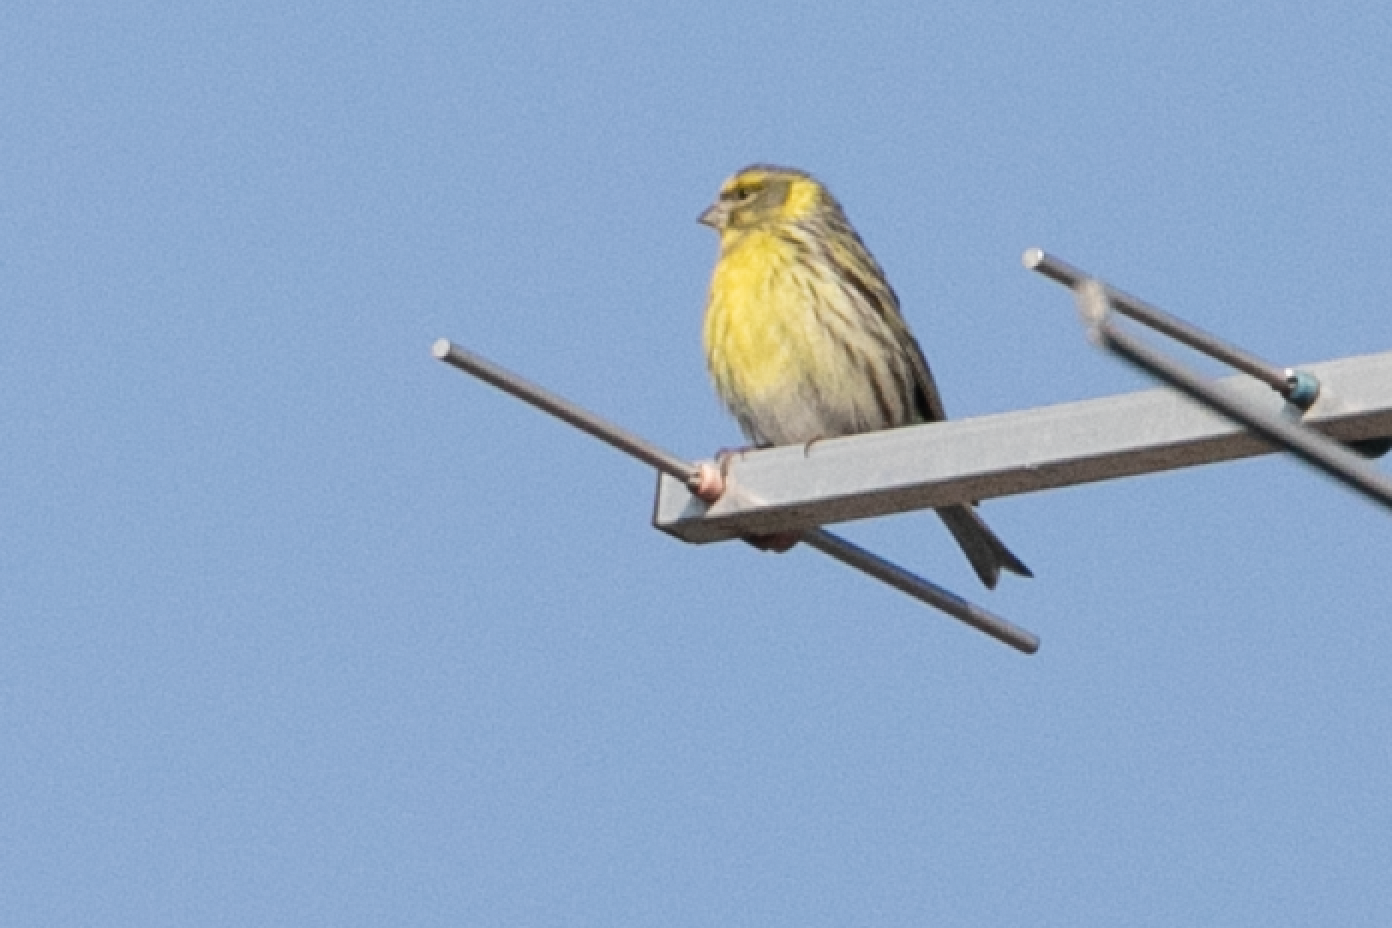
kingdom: Animalia
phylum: Chordata
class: Aves
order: Passeriformes
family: Fringillidae
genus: Serinus
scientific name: Serinus serinus
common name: European serin
